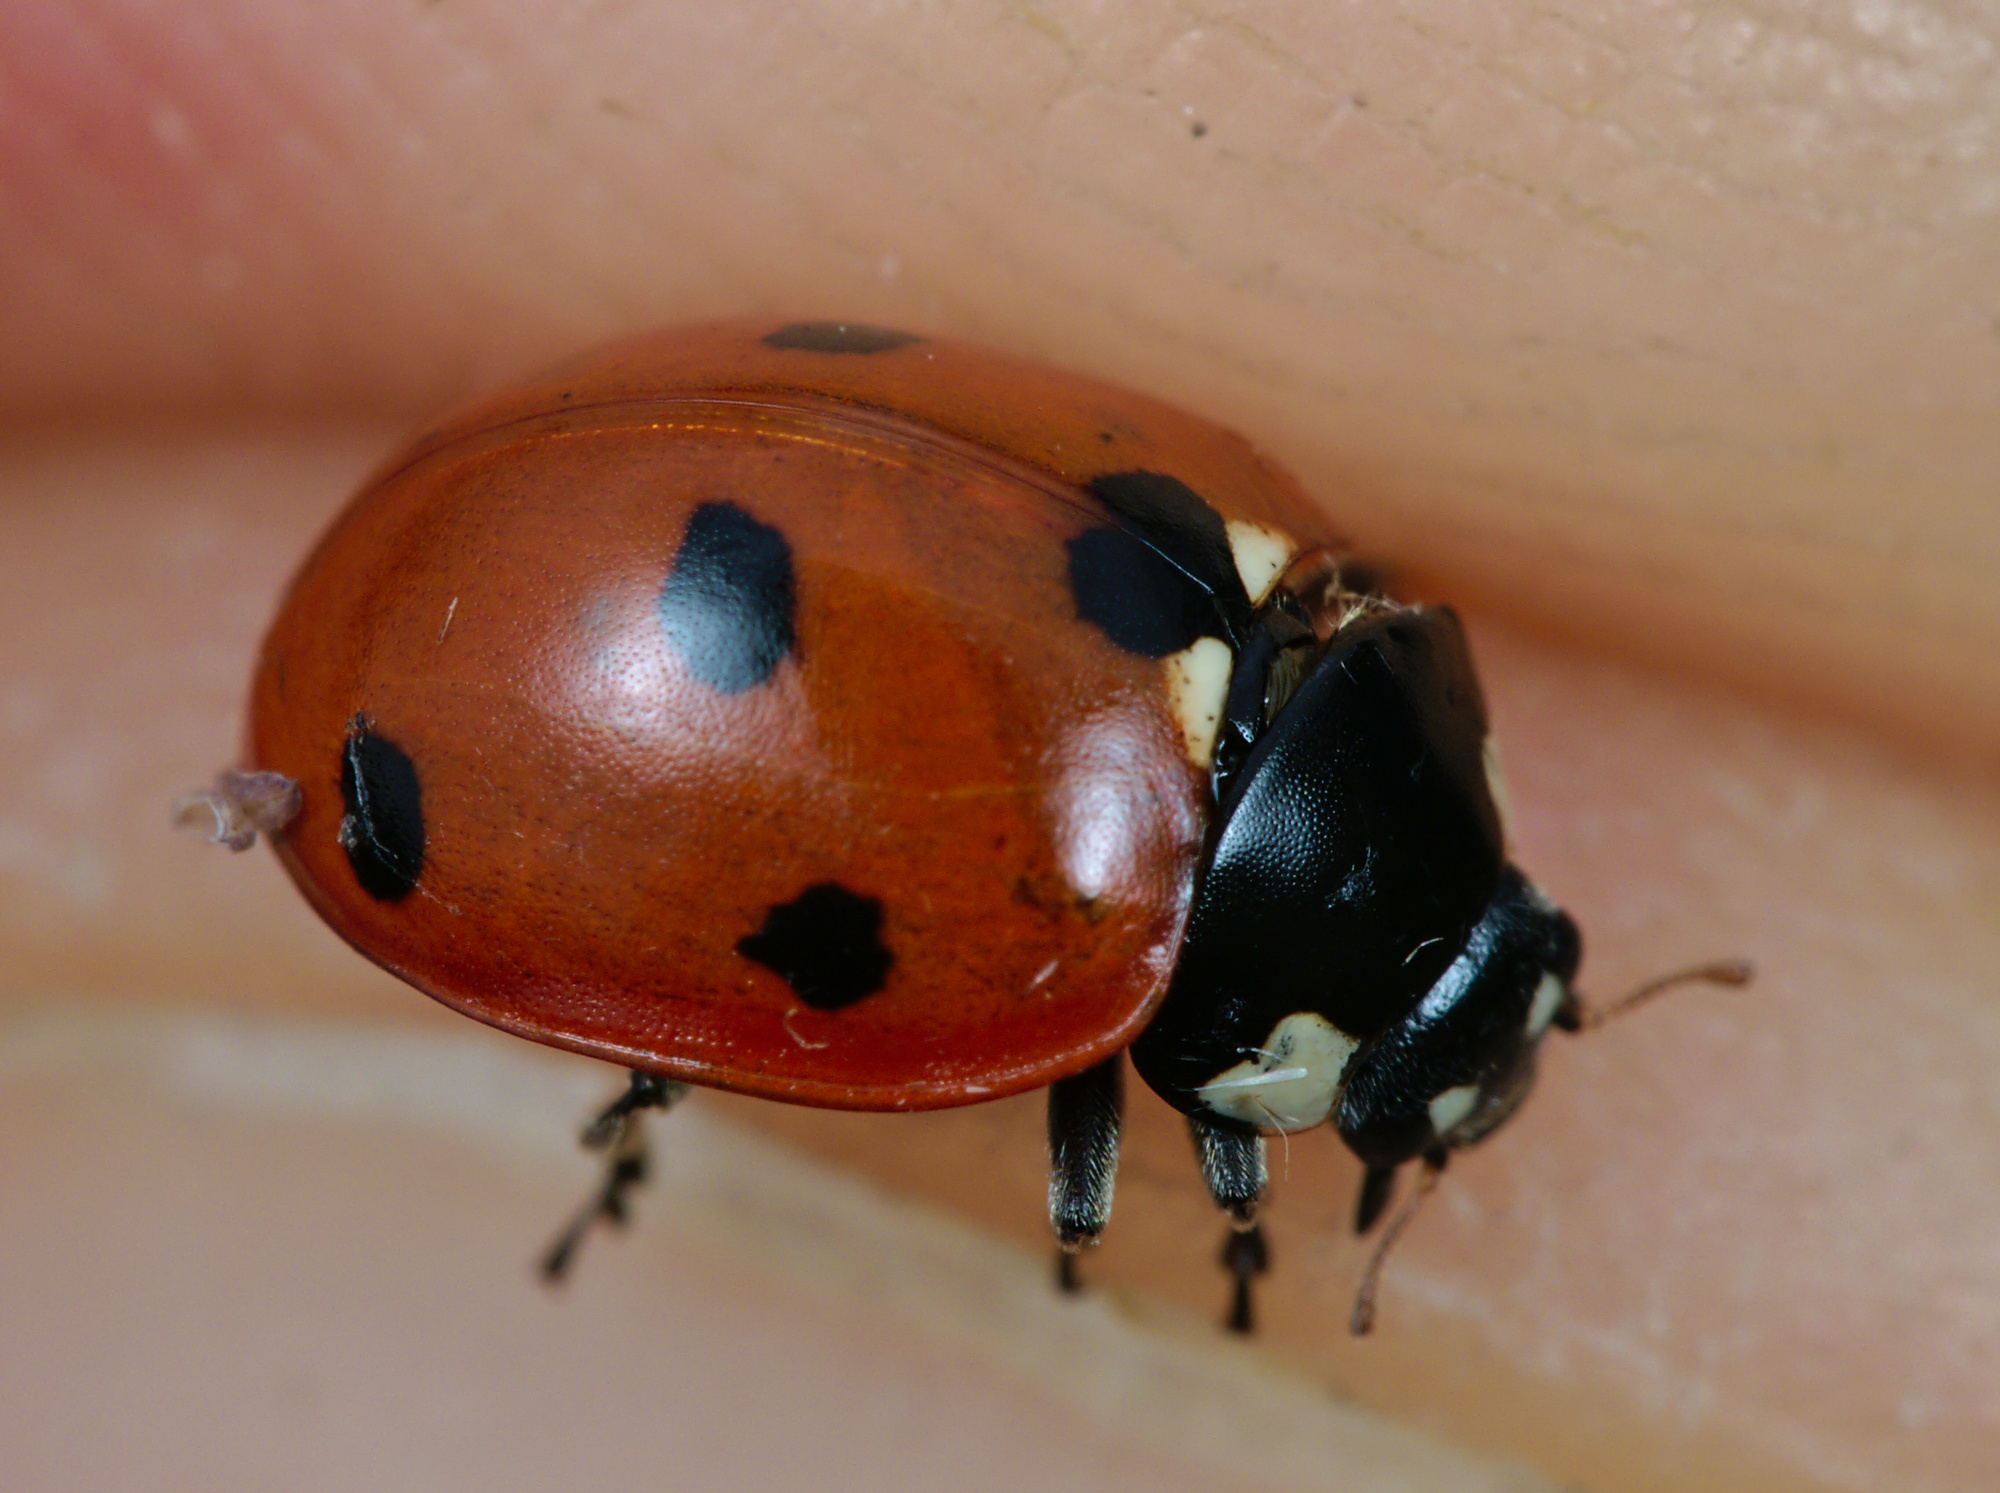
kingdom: Animalia
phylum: Arthropoda
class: Insecta
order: Coleoptera
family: Coccinellidae
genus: Coccinella
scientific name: Coccinella septempunctata
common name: Sevenspotted lady beetle
